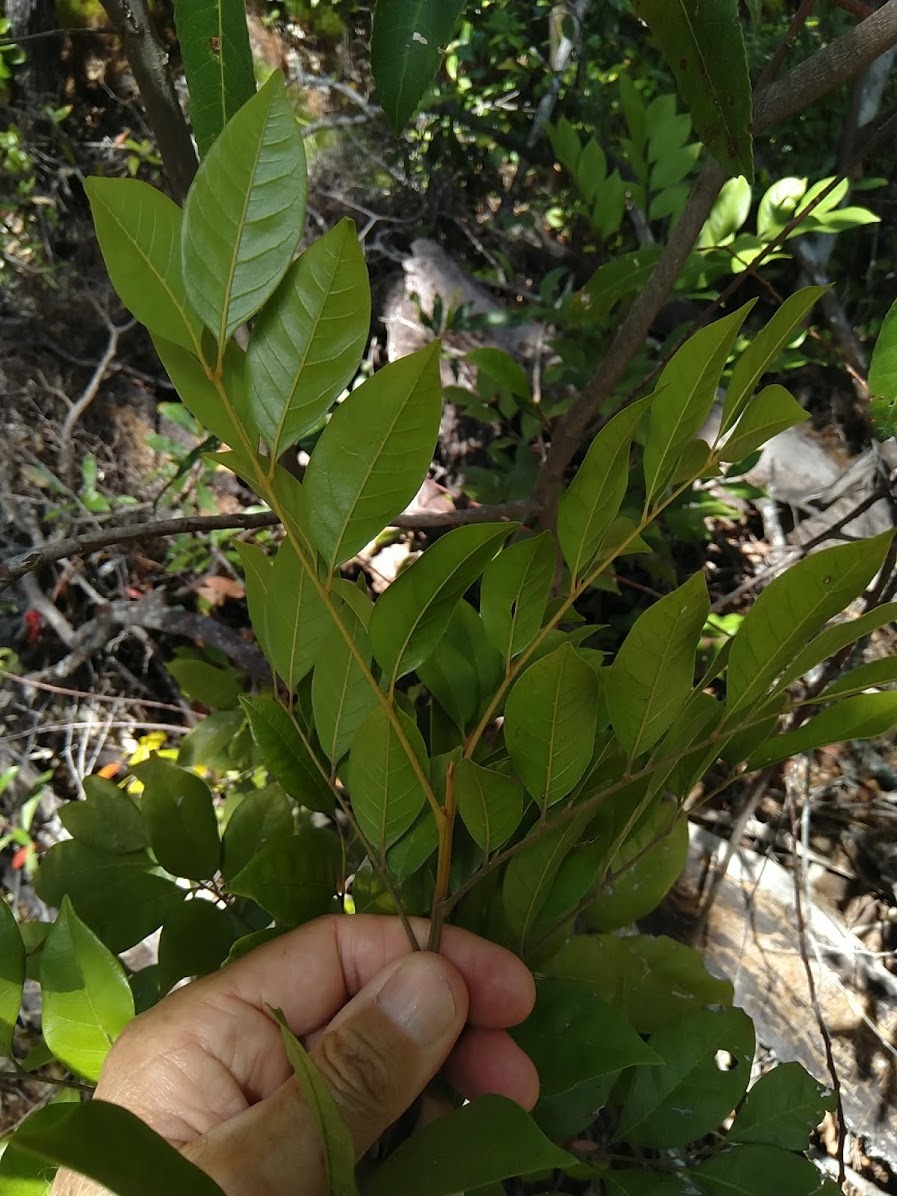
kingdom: Plantae
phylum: Tracheophyta
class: Magnoliopsida
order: Sapindales
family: Meliaceae
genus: Aglaia
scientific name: Aglaia brownii
